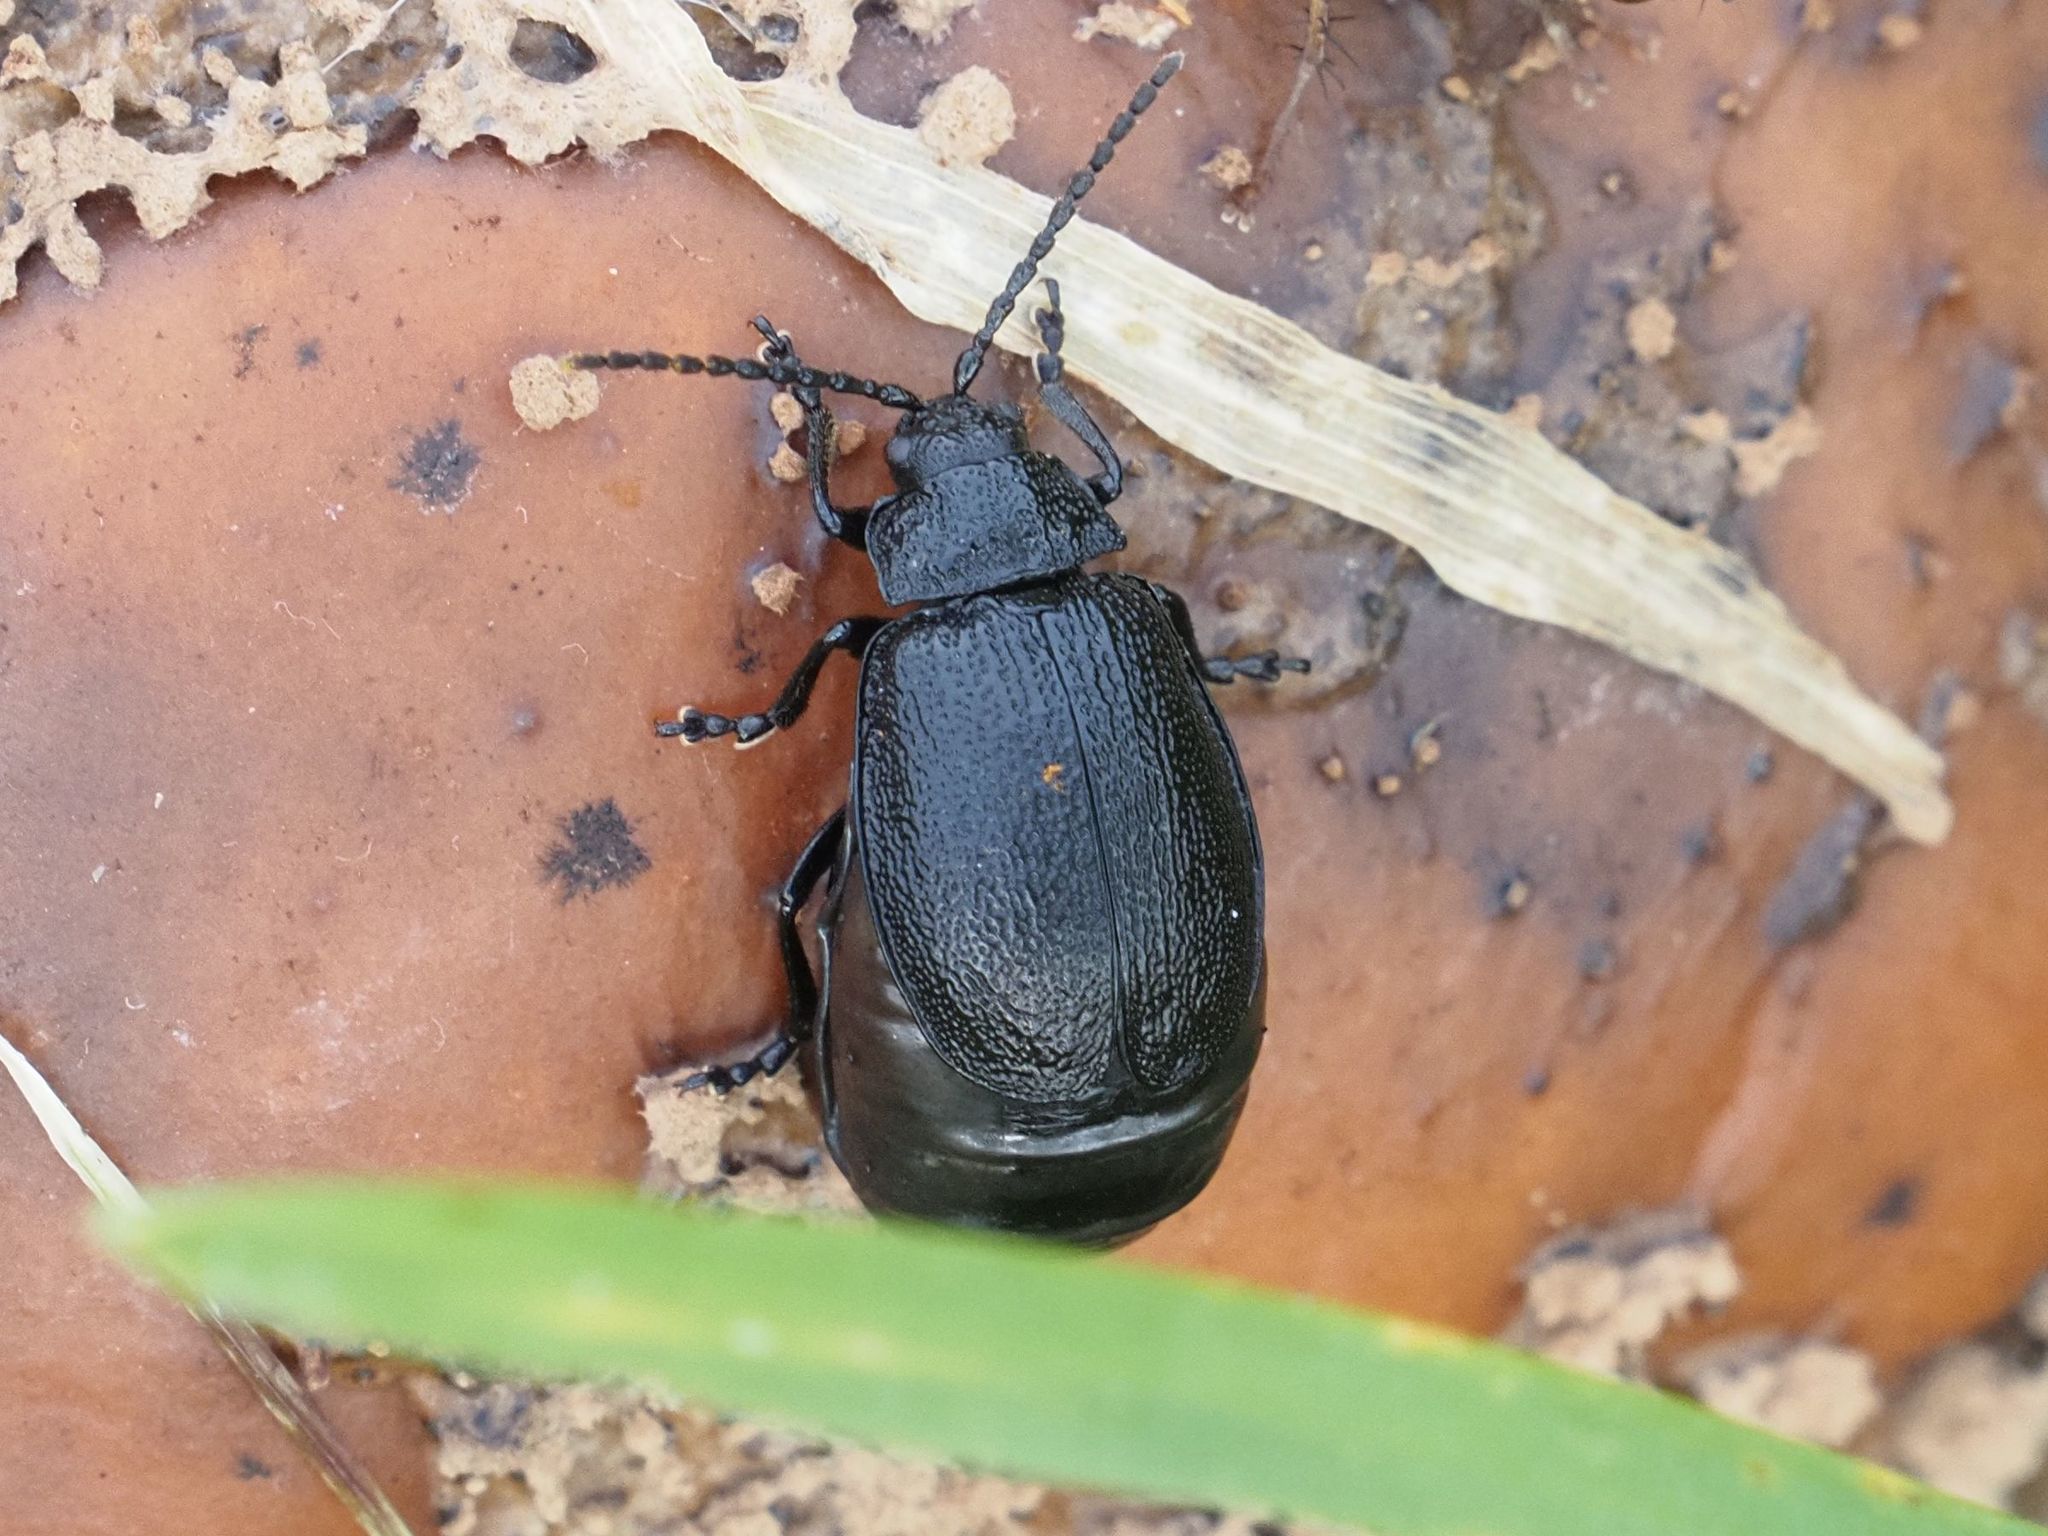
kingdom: Animalia
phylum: Arthropoda
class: Insecta
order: Coleoptera
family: Chrysomelidae
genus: Galeruca
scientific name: Galeruca tanaceti
